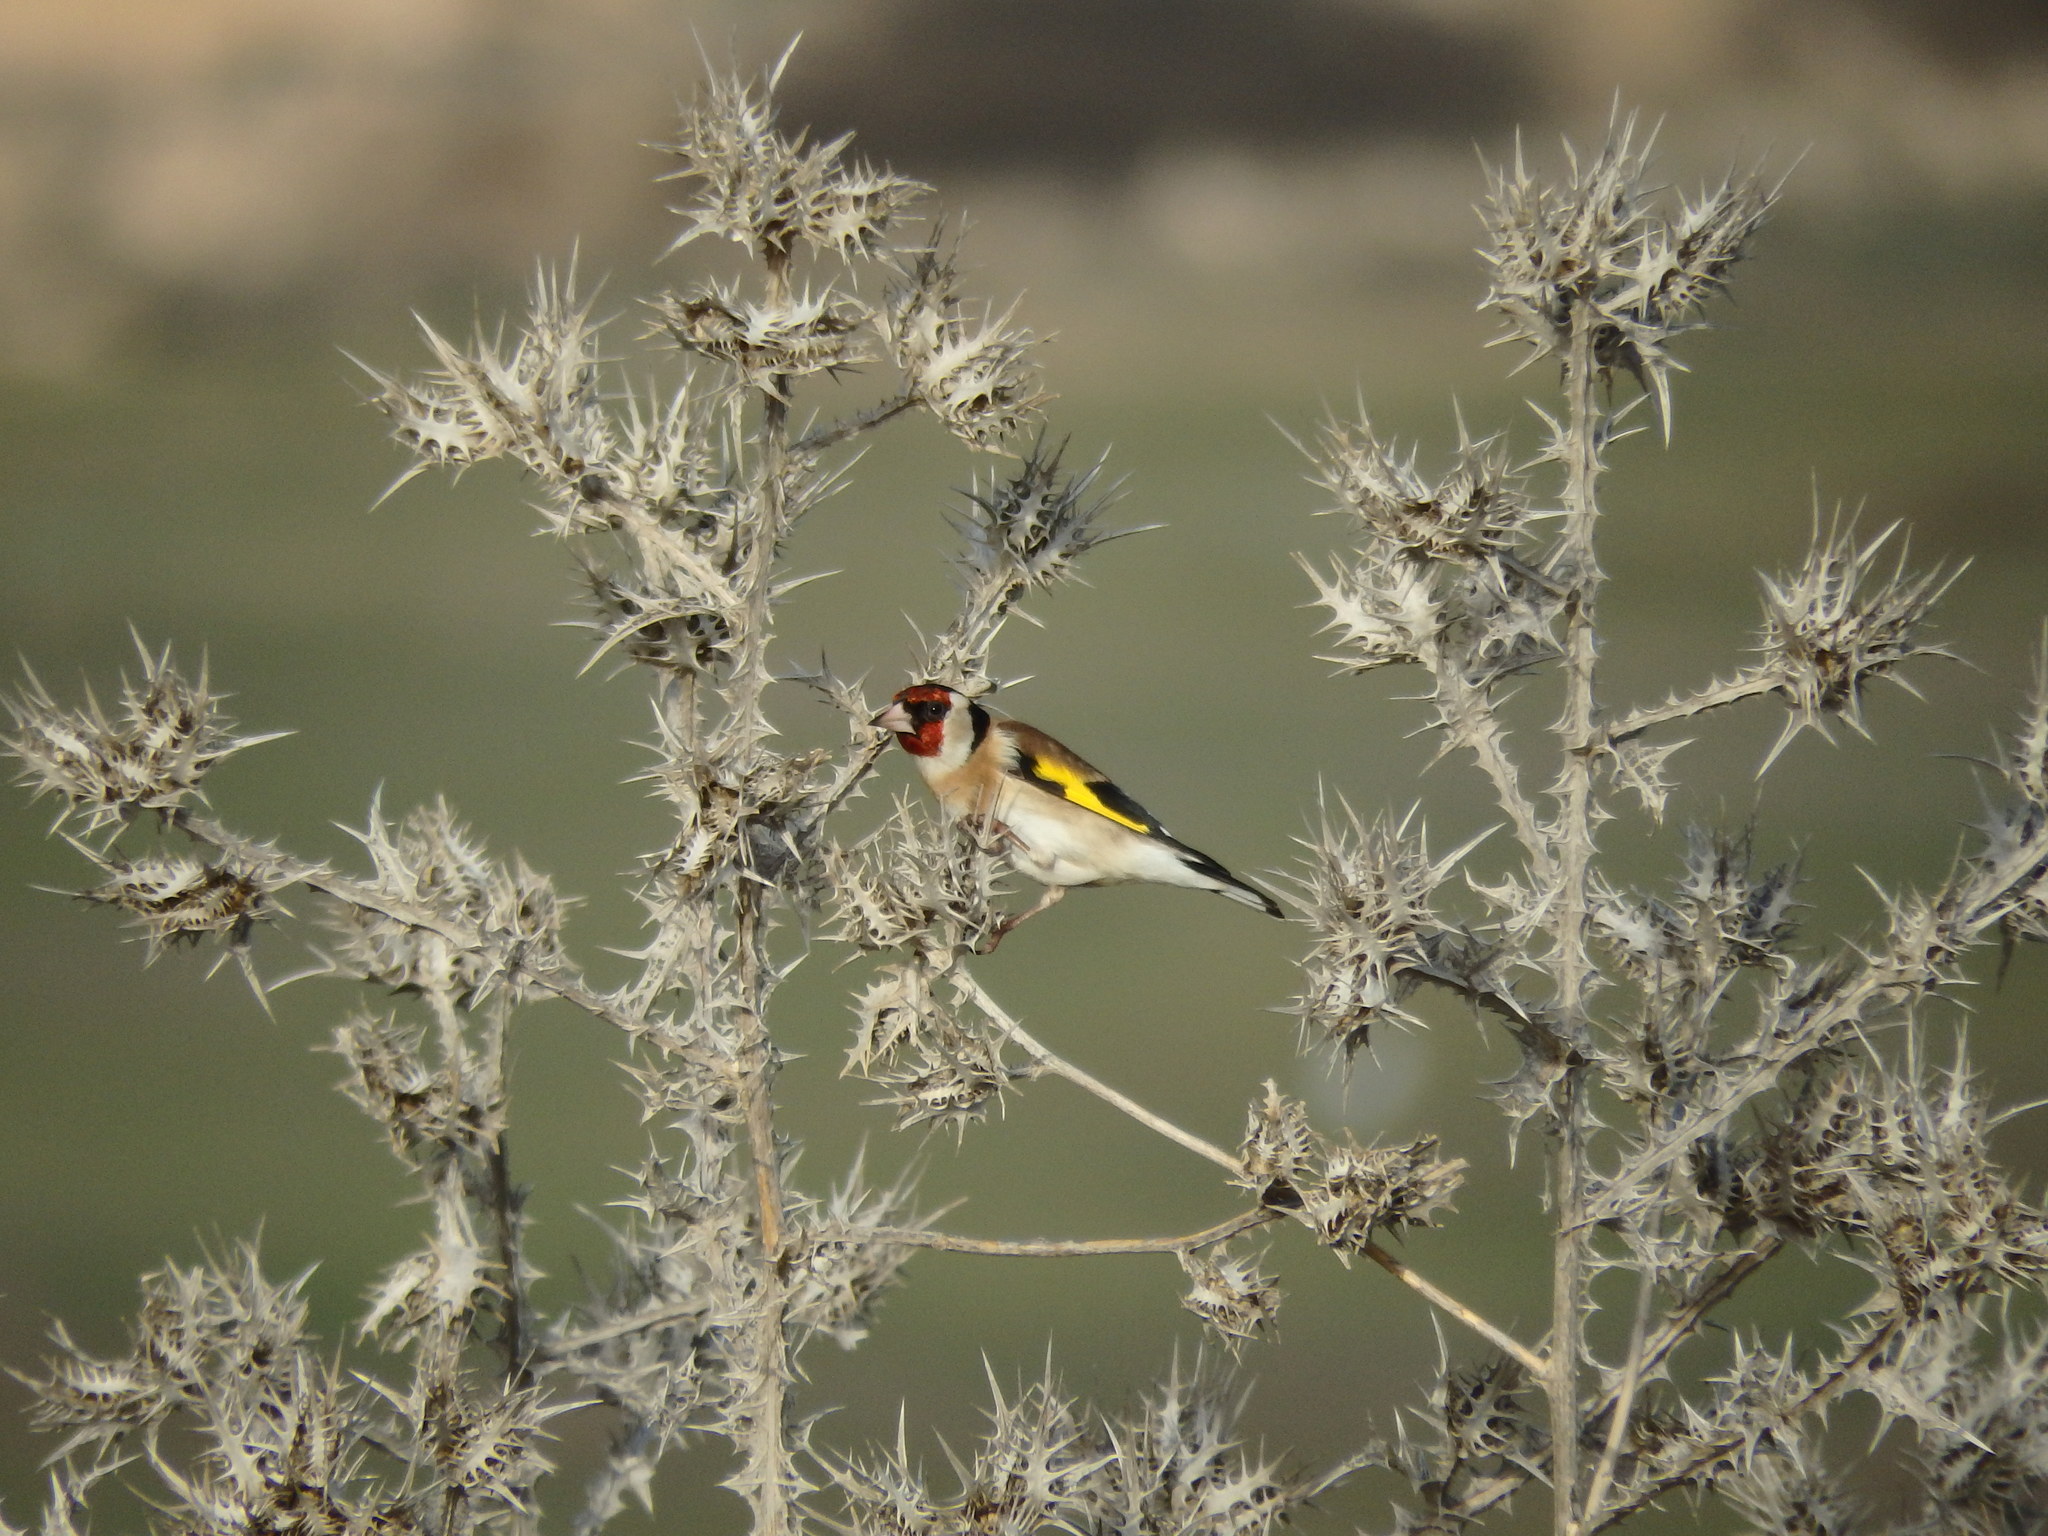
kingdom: Animalia
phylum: Chordata
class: Aves
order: Passeriformes
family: Fringillidae
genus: Carduelis
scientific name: Carduelis carduelis
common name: European goldfinch
